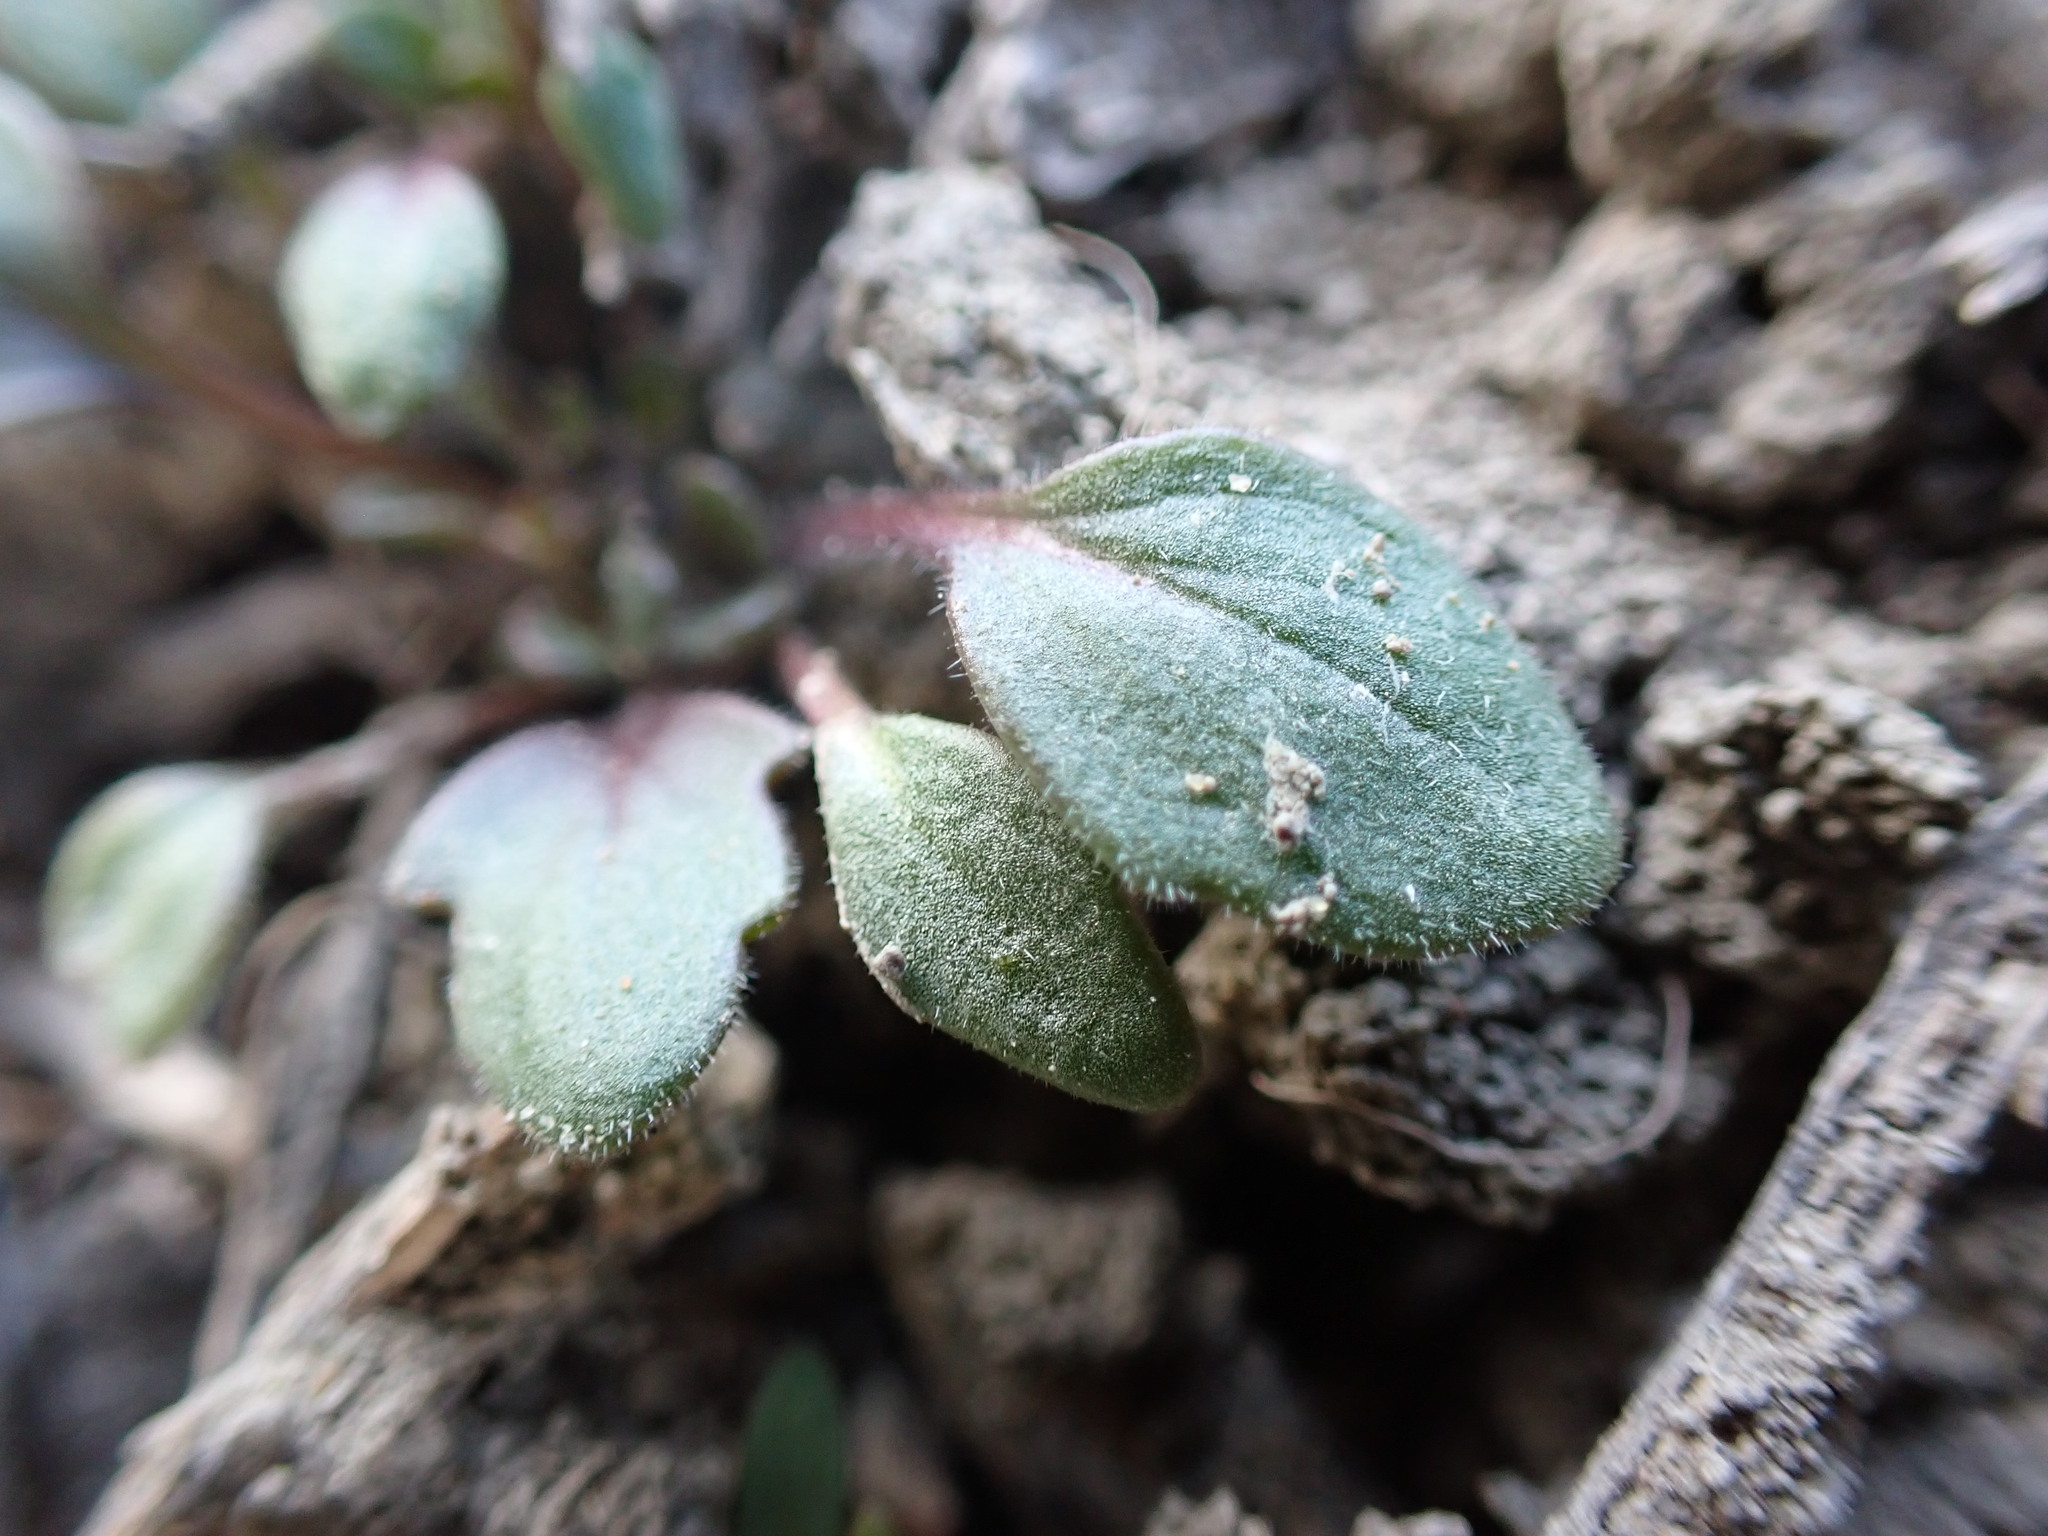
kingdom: Plantae
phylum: Tracheophyta
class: Magnoliopsida
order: Boraginales
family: Hydrophyllaceae
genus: Phacelia
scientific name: Phacelia scopulina
